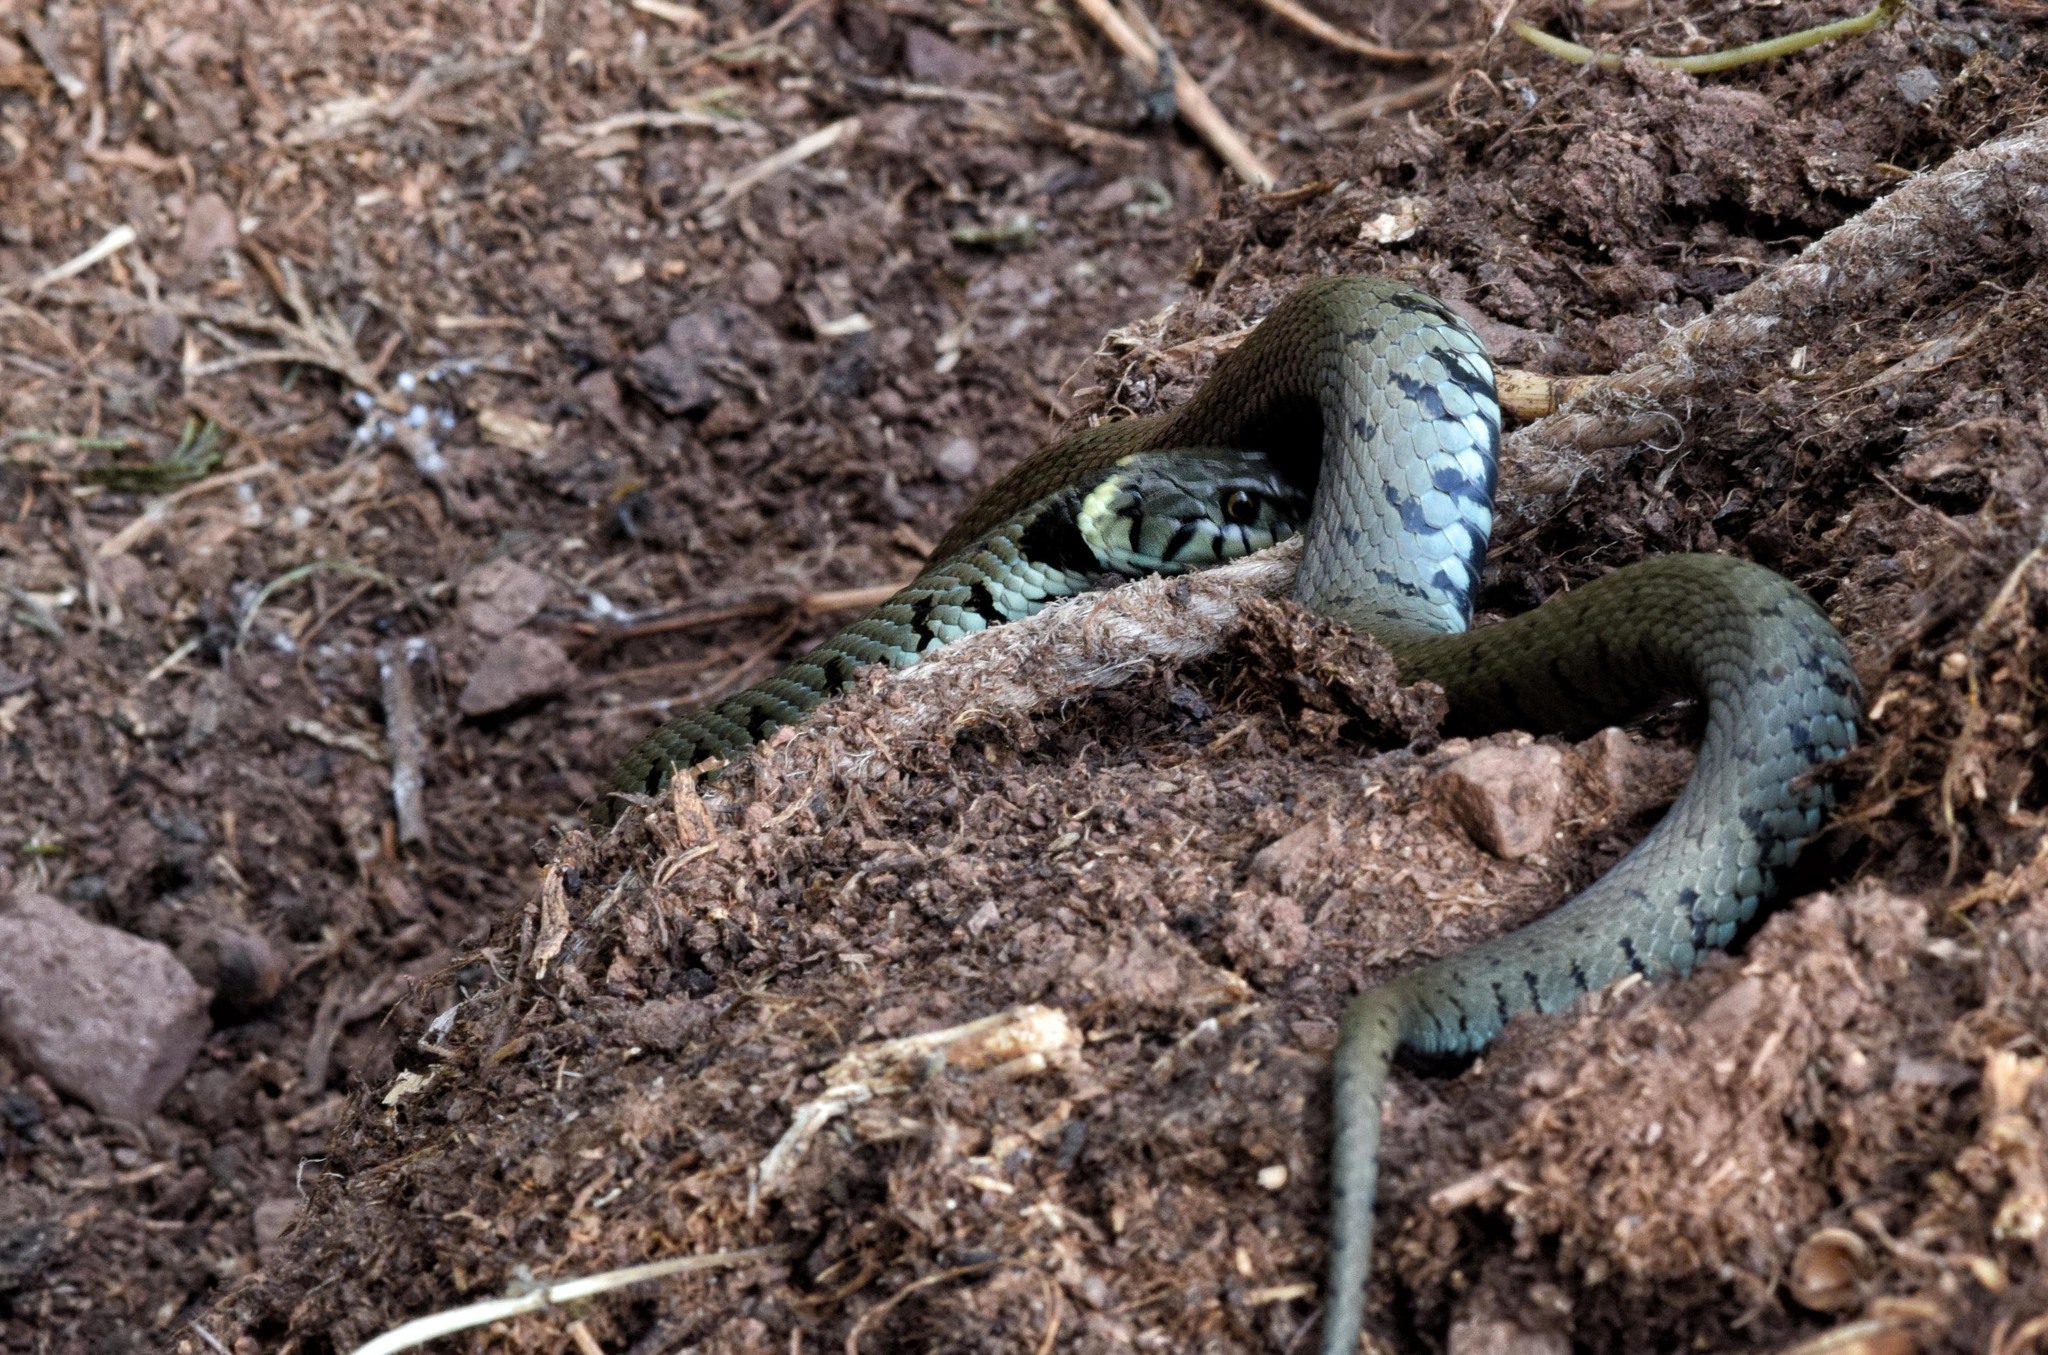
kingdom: Animalia
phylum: Chordata
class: Squamata
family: Colubridae
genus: Natrix
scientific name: Natrix helvetica
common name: Banded grass snake
